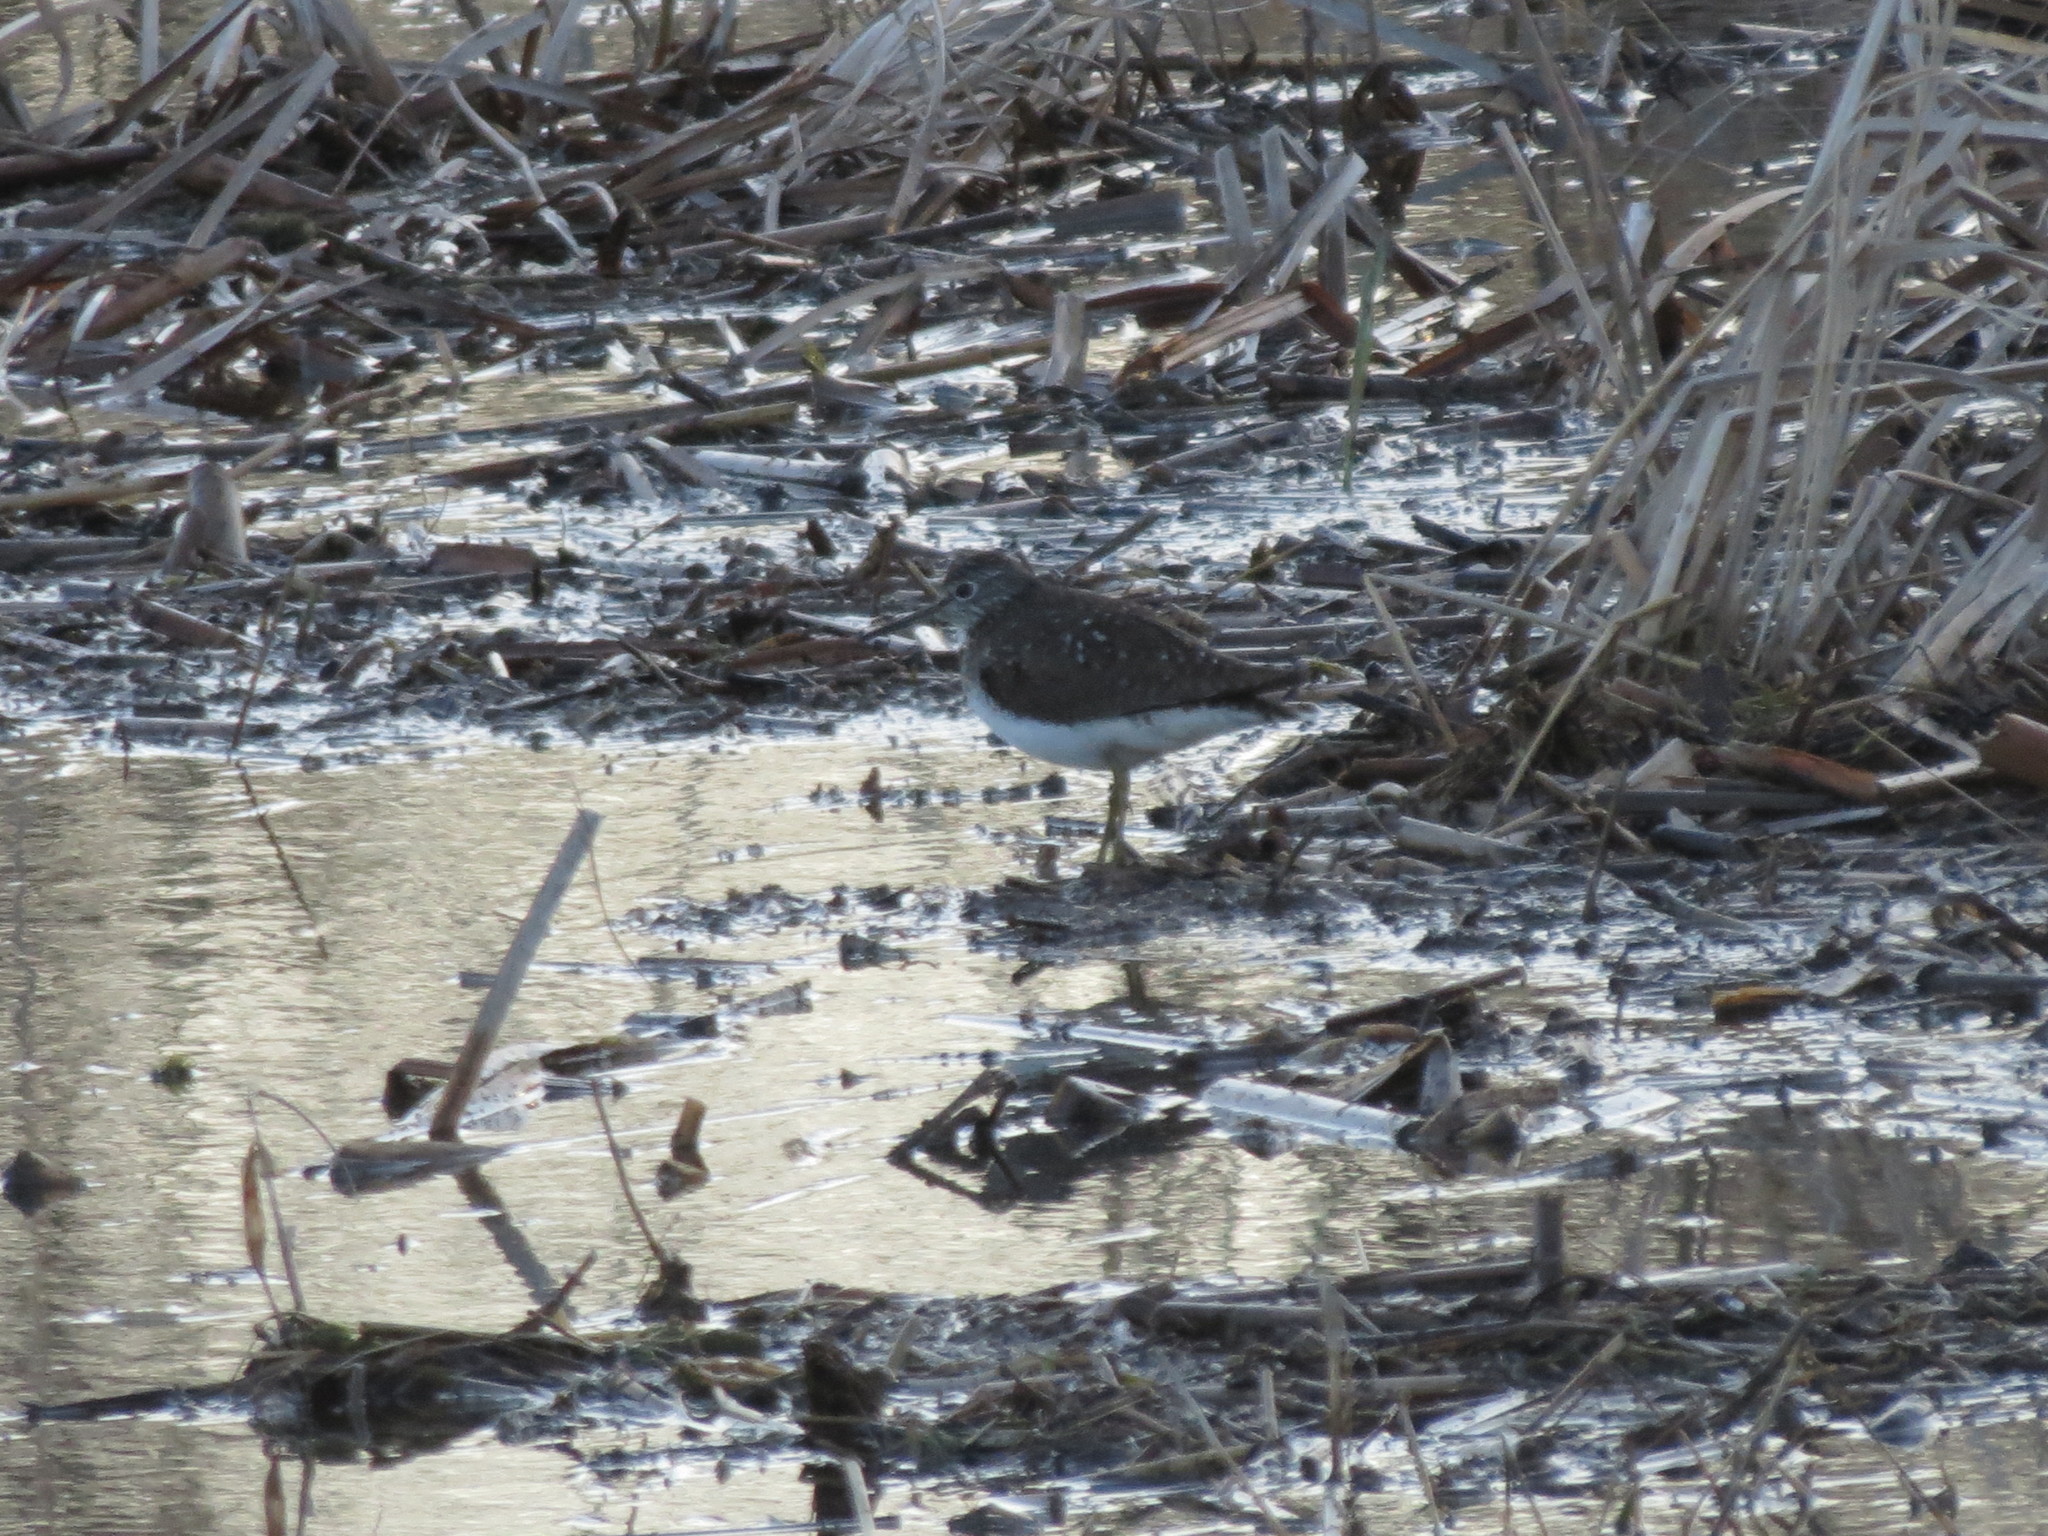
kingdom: Animalia
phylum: Chordata
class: Aves
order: Charadriiformes
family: Scolopacidae
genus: Tringa
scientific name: Tringa solitaria
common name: Solitary sandpiper
